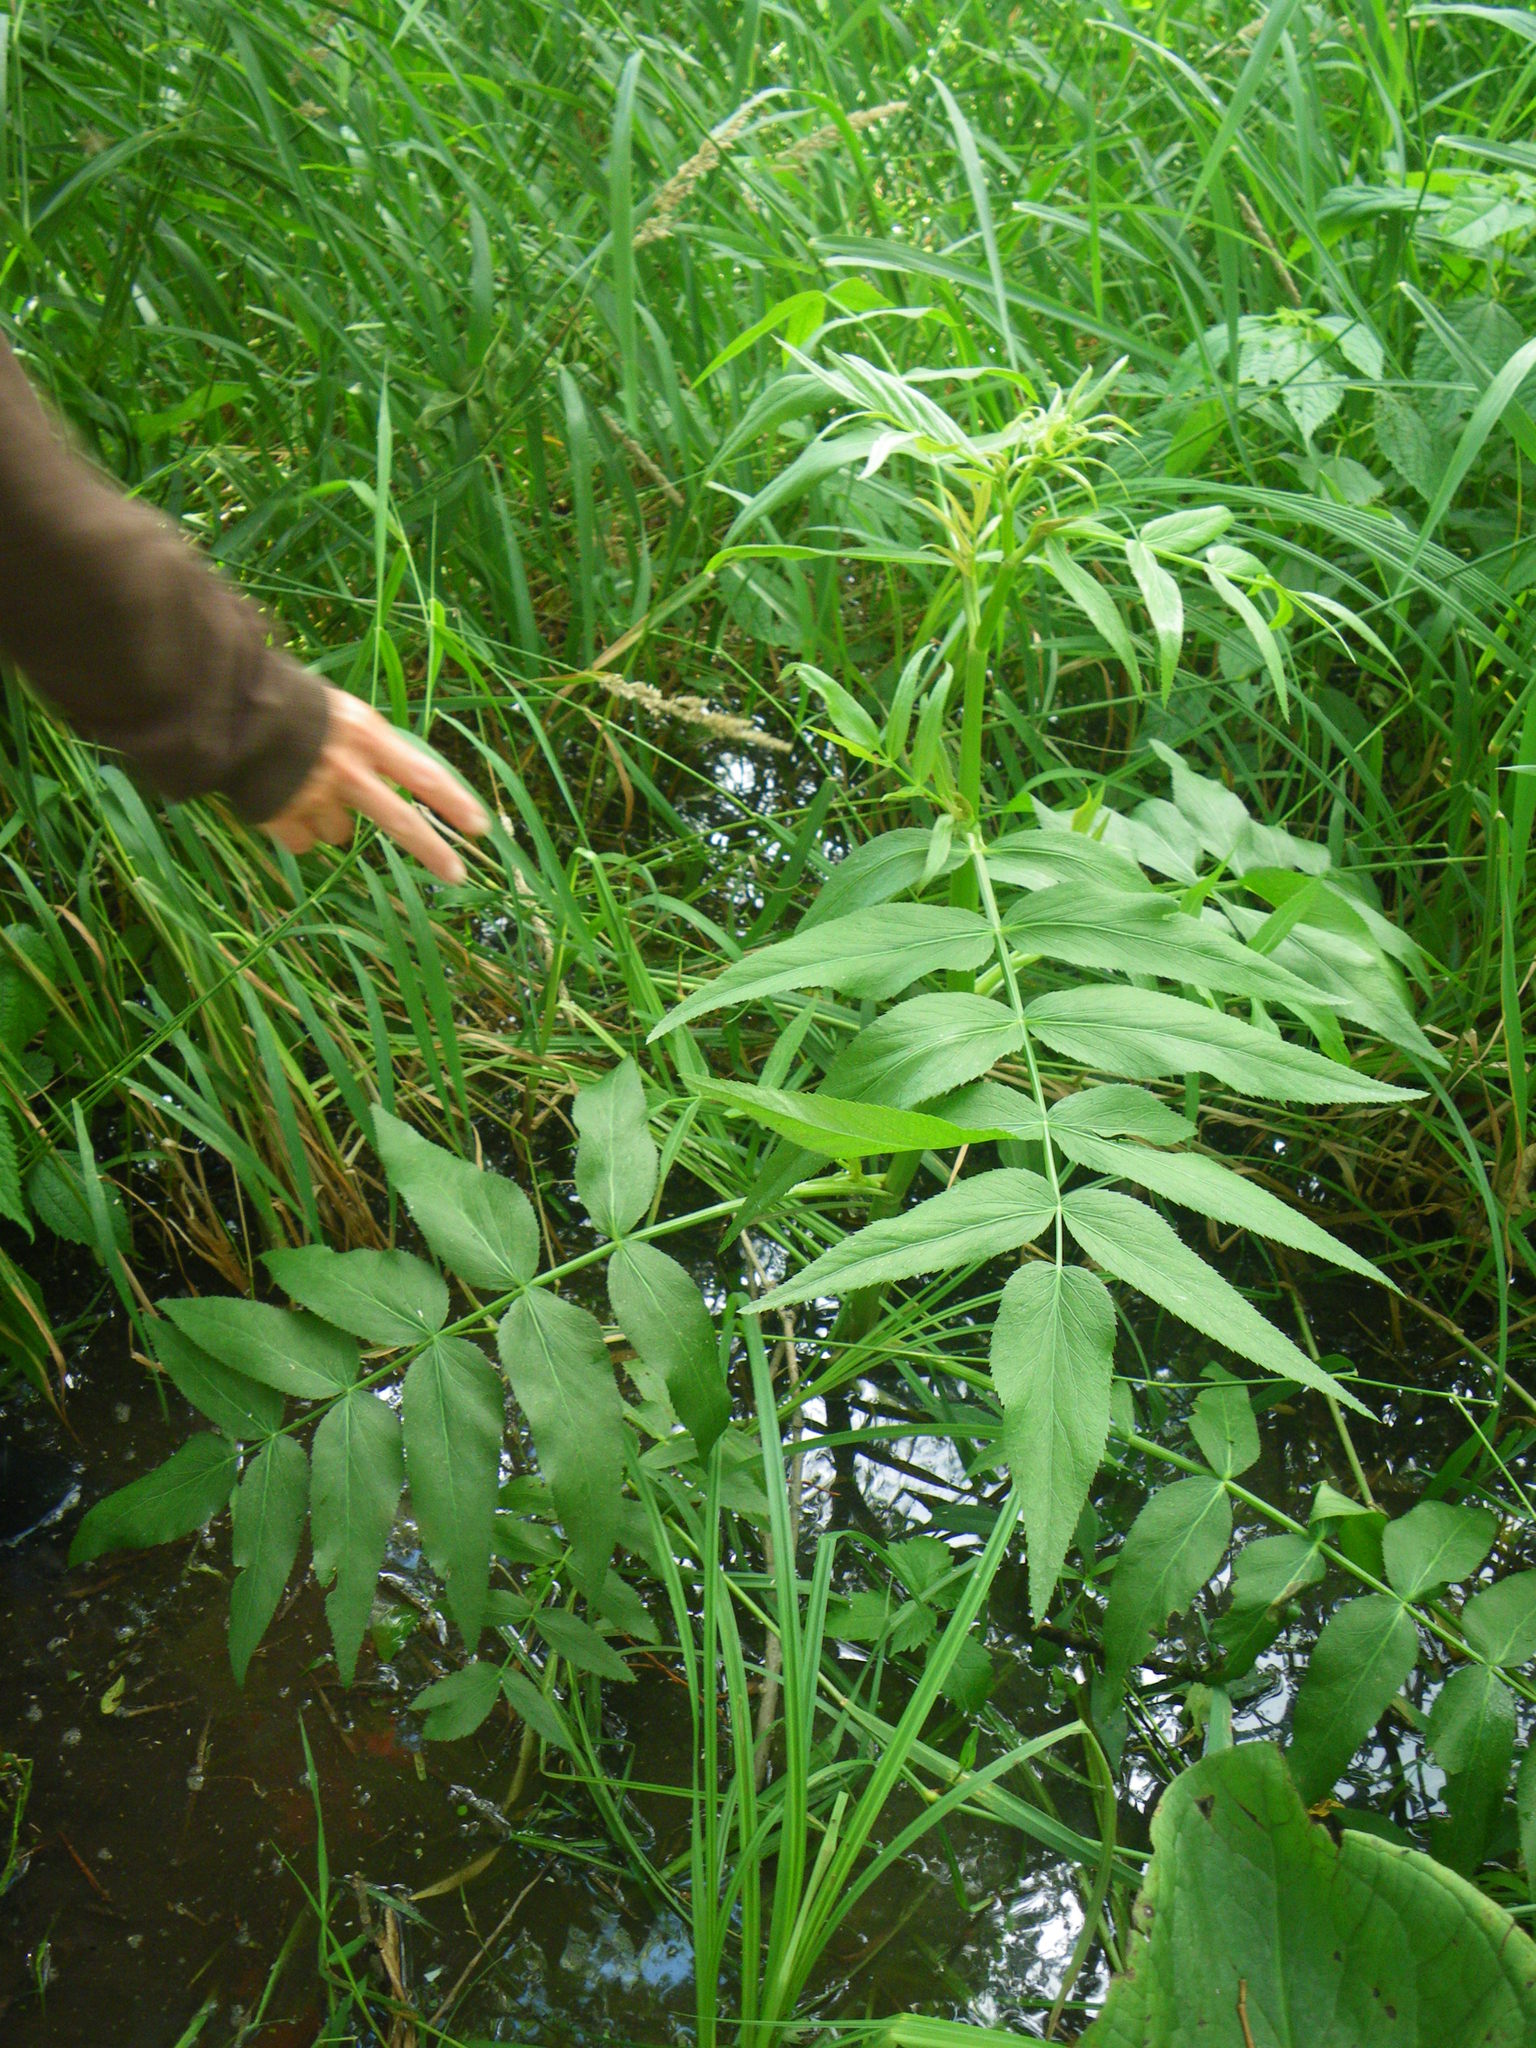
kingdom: Plantae
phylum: Tracheophyta
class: Magnoliopsida
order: Apiales
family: Apiaceae
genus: Sium
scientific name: Sium suave
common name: Hemlock water-parsnip
